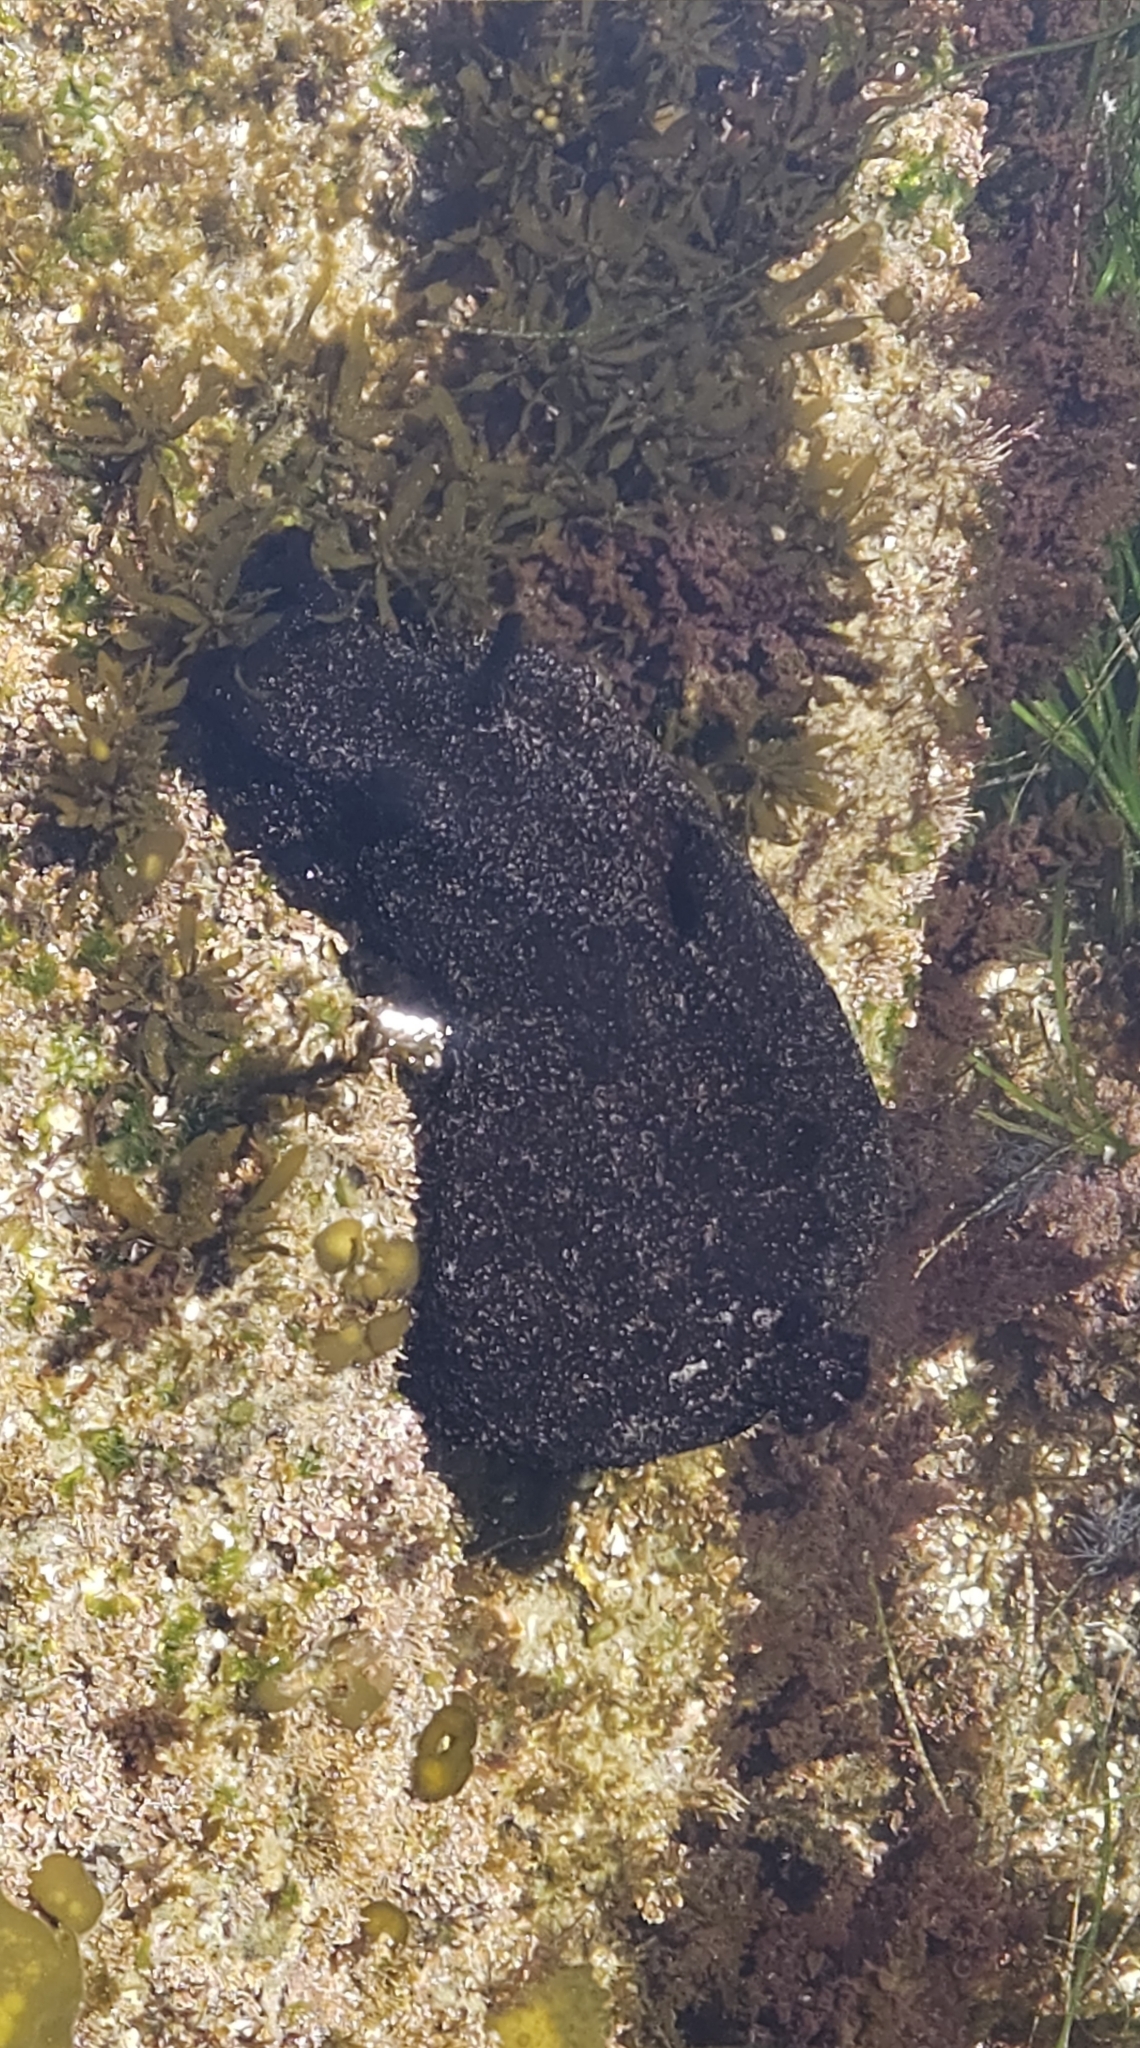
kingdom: Animalia
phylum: Mollusca
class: Gastropoda
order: Aplysiida
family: Aplysiidae
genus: Aplysia
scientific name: Aplysia vaccaria
